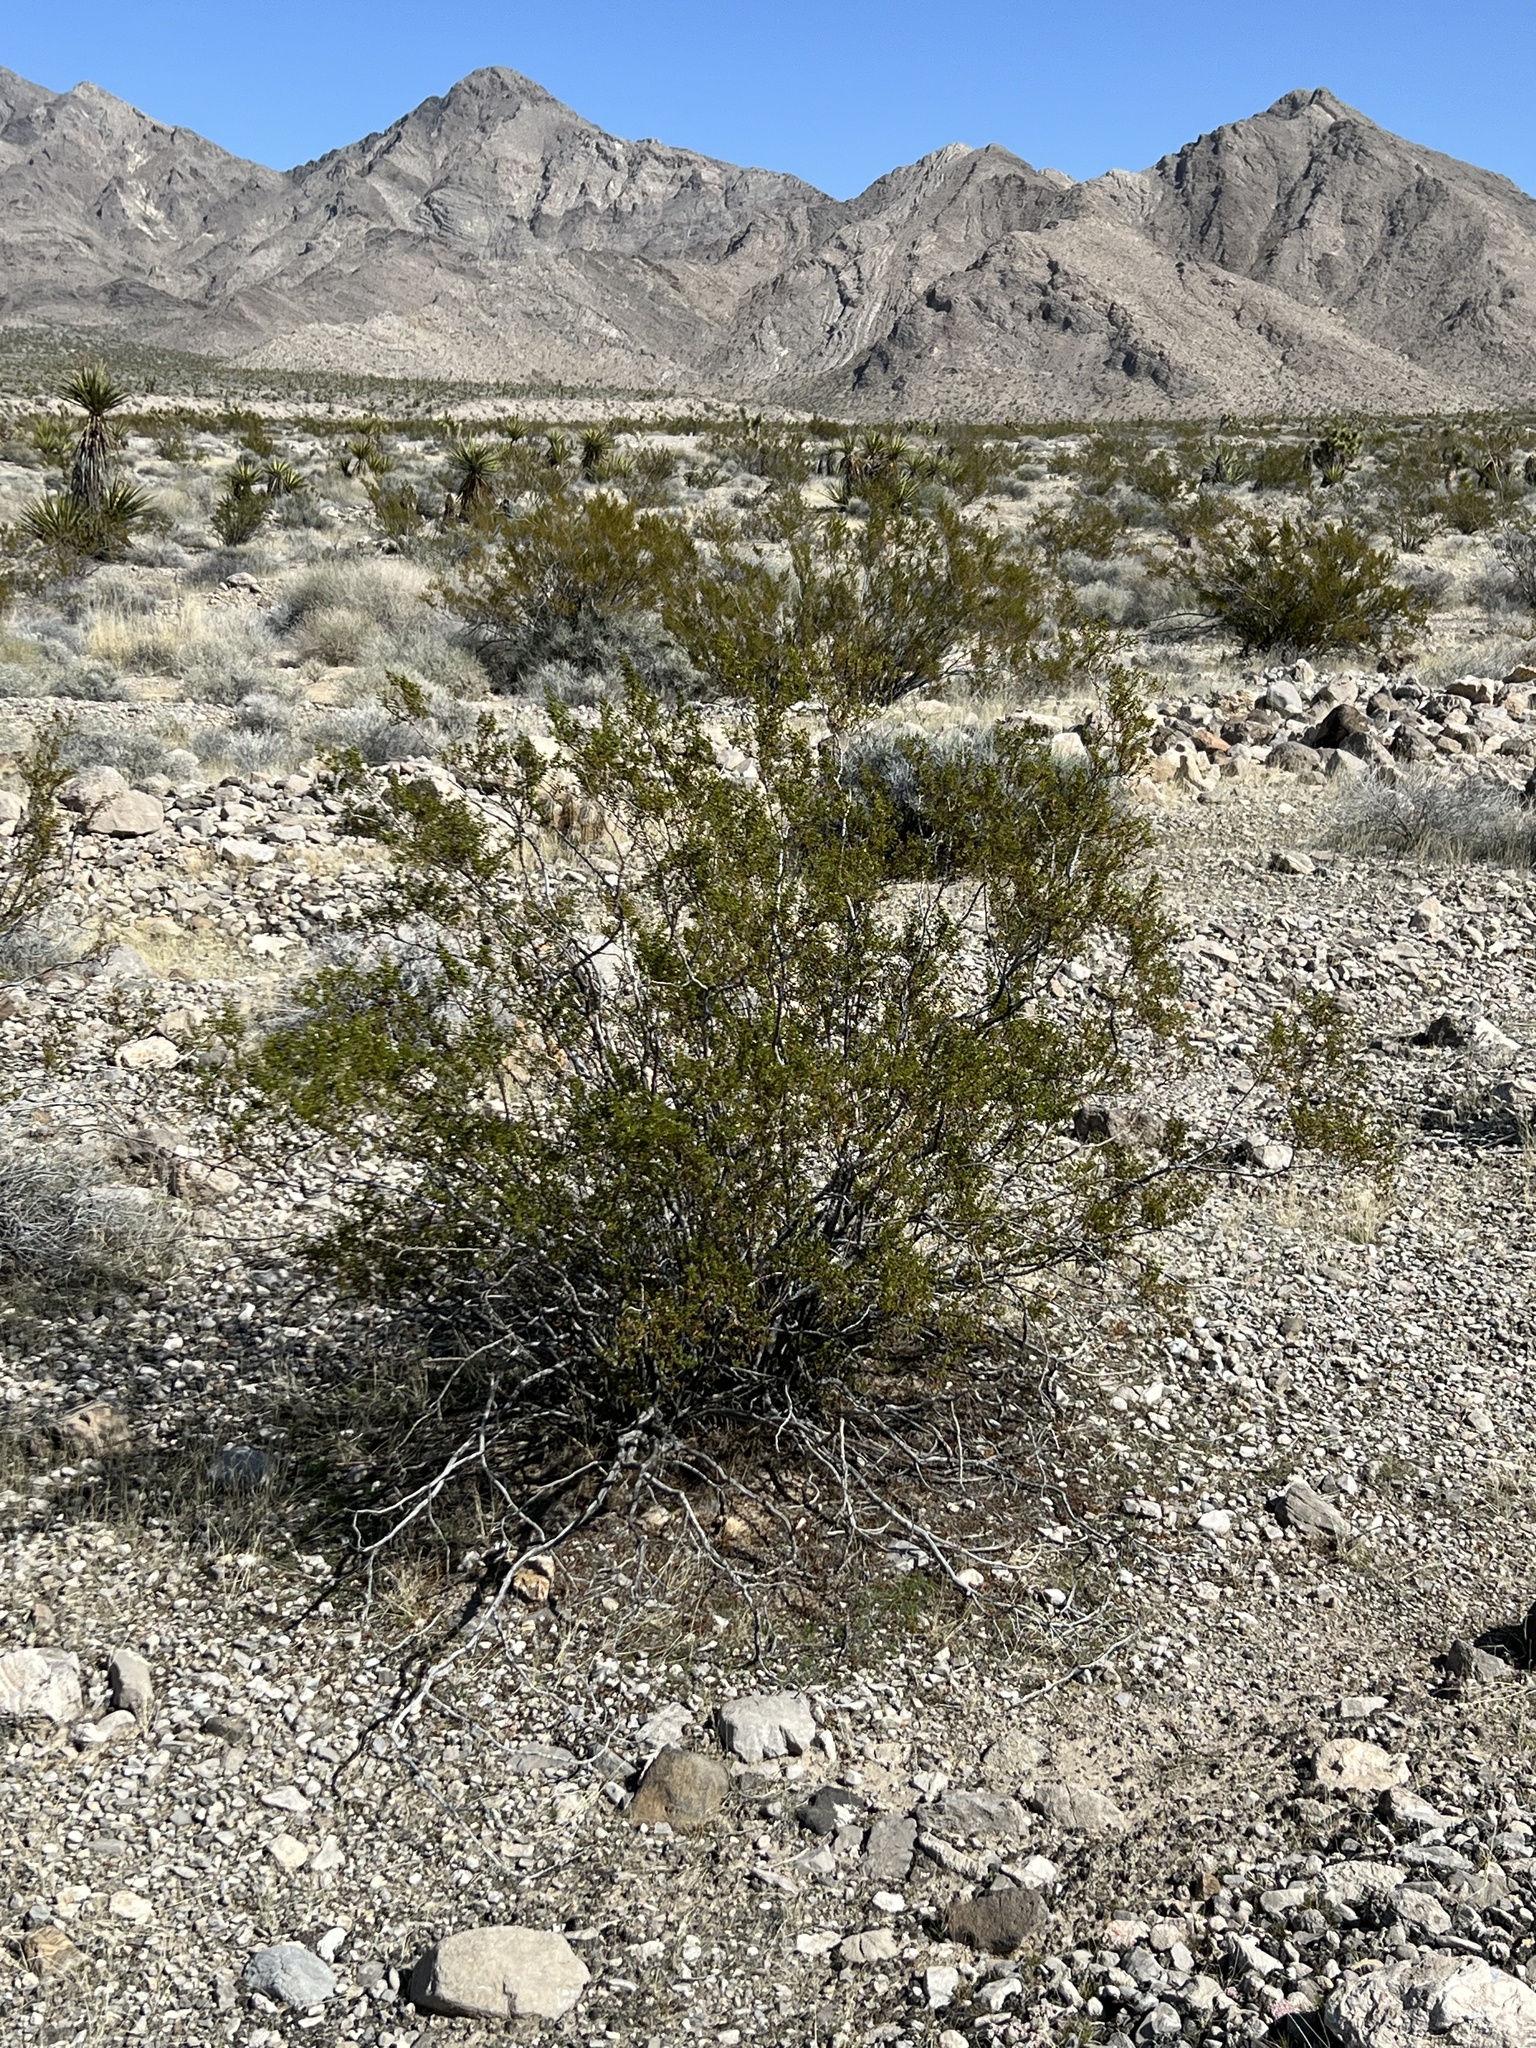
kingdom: Plantae
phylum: Tracheophyta
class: Magnoliopsida
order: Zygophyllales
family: Zygophyllaceae
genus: Larrea
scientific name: Larrea tridentata
